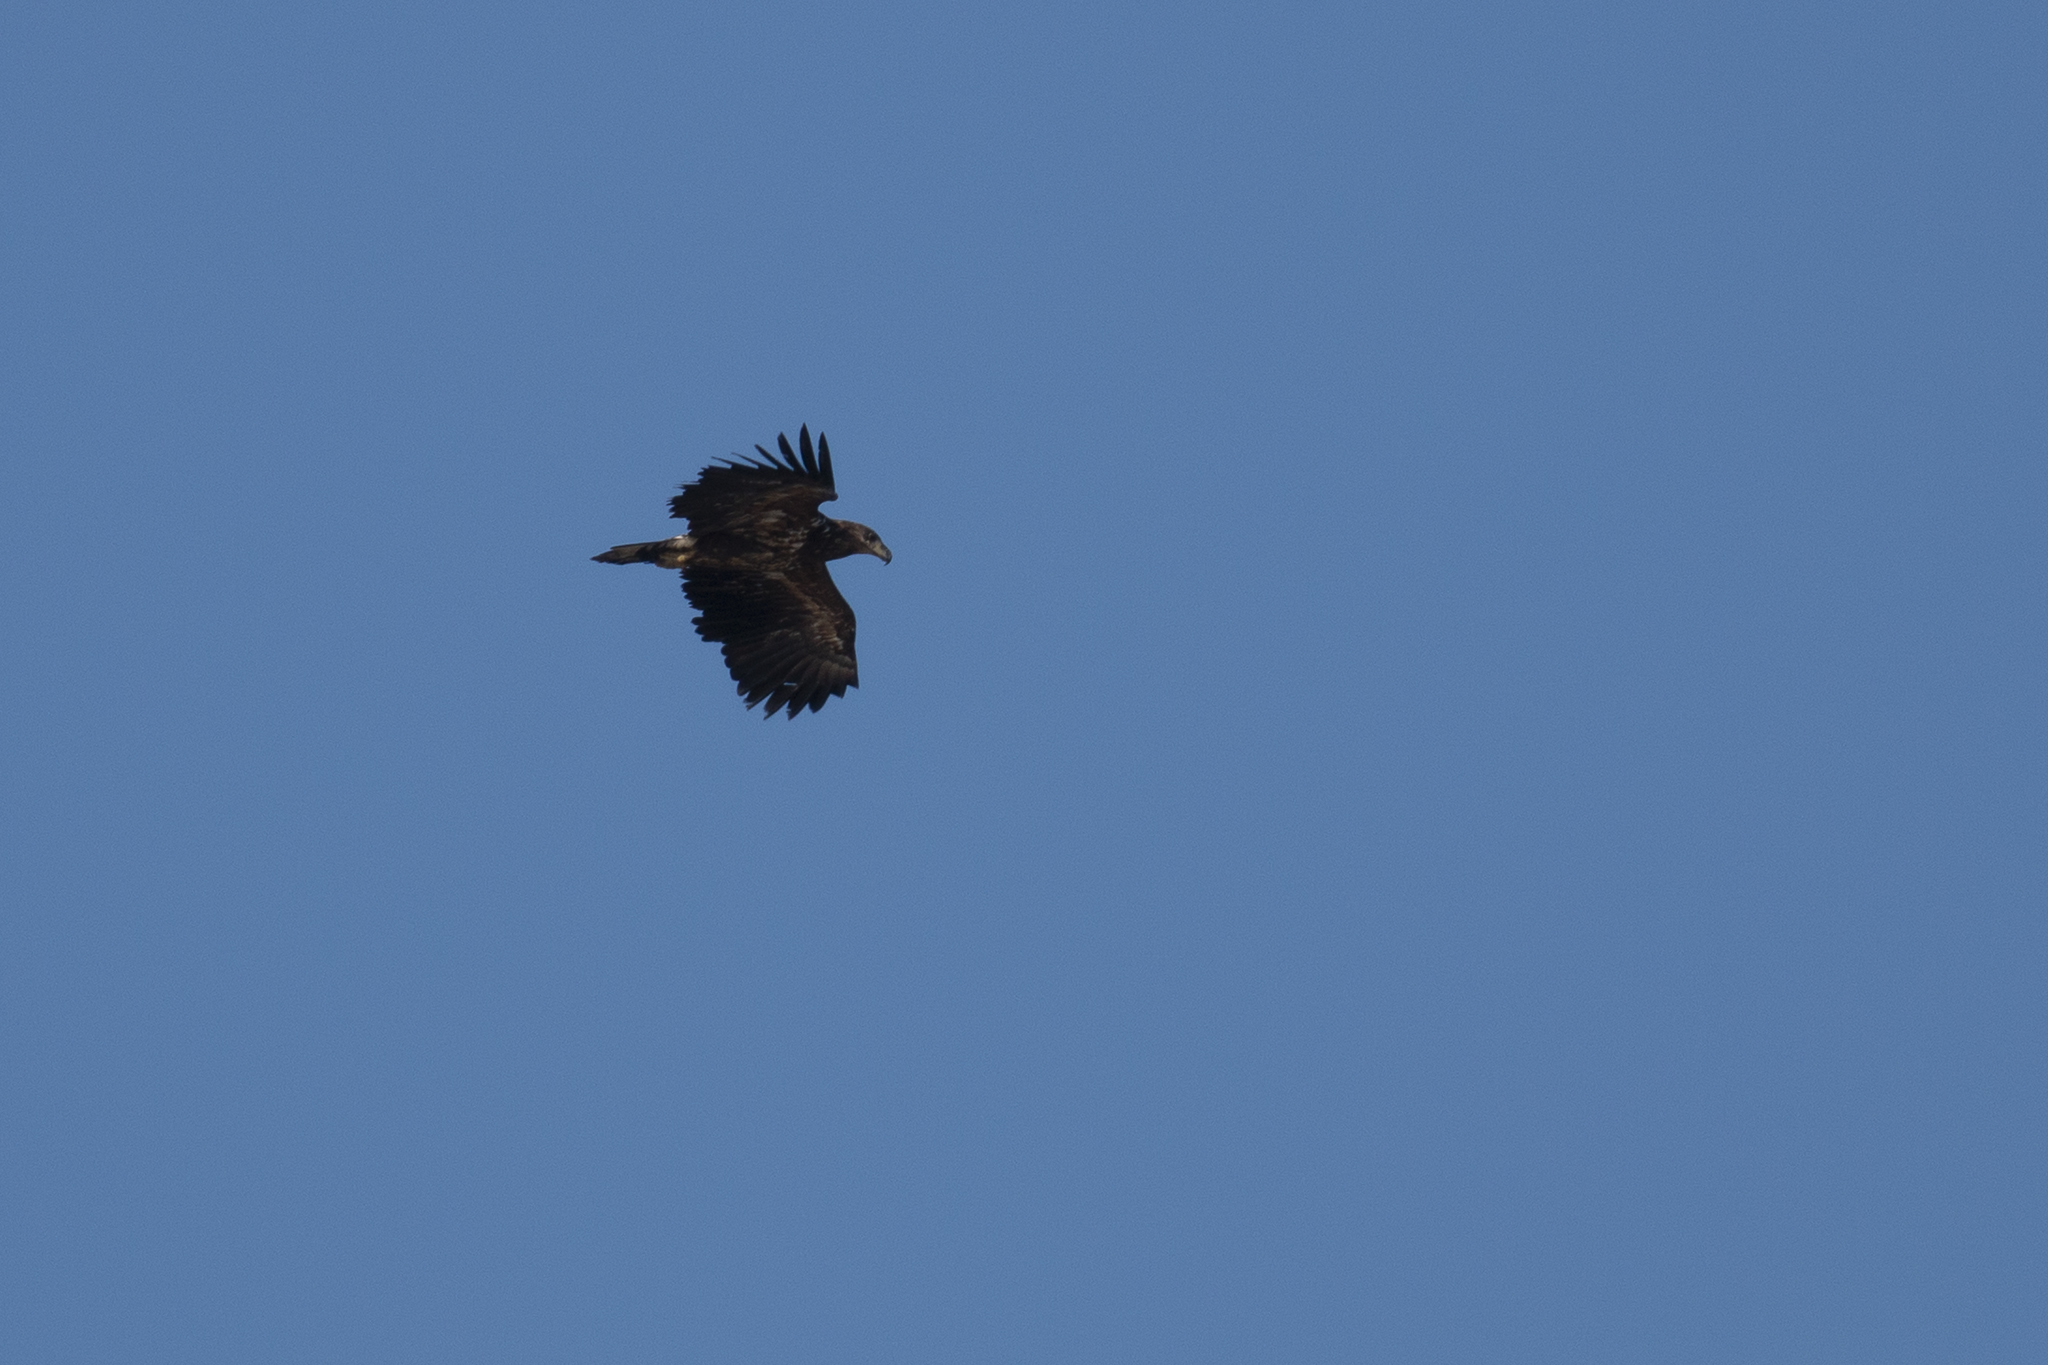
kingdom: Animalia
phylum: Chordata
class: Aves
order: Accipitriformes
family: Accipitridae
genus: Haliaeetus
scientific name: Haliaeetus albicilla
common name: White-tailed eagle
